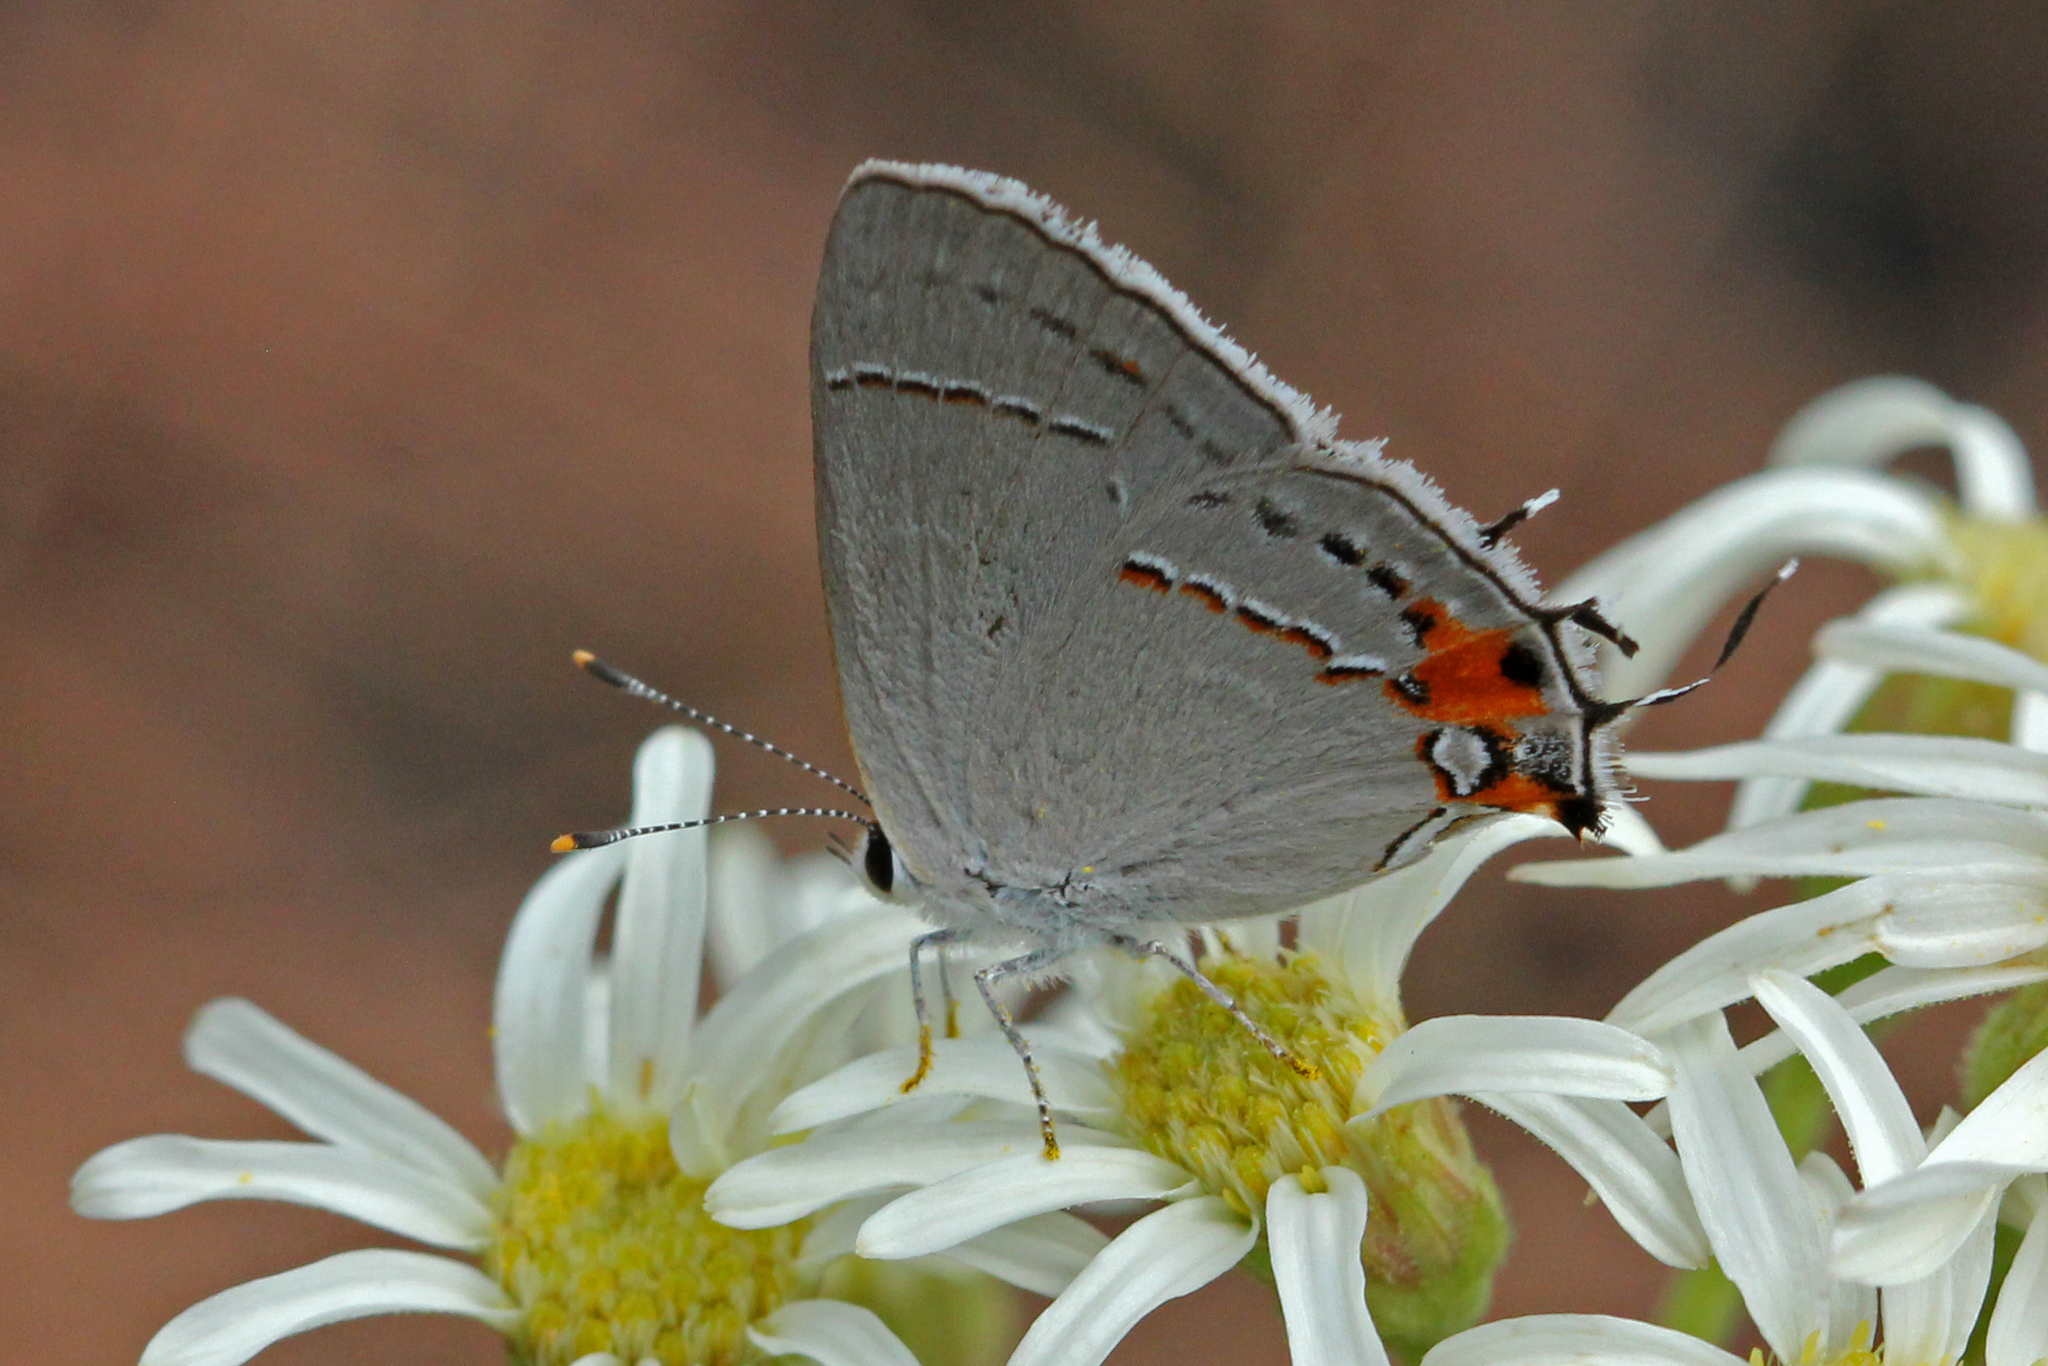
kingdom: Animalia
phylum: Arthropoda
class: Insecta
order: Lepidoptera
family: Lycaenidae
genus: Strymon
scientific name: Strymon melinus
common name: Gray hairstreak
